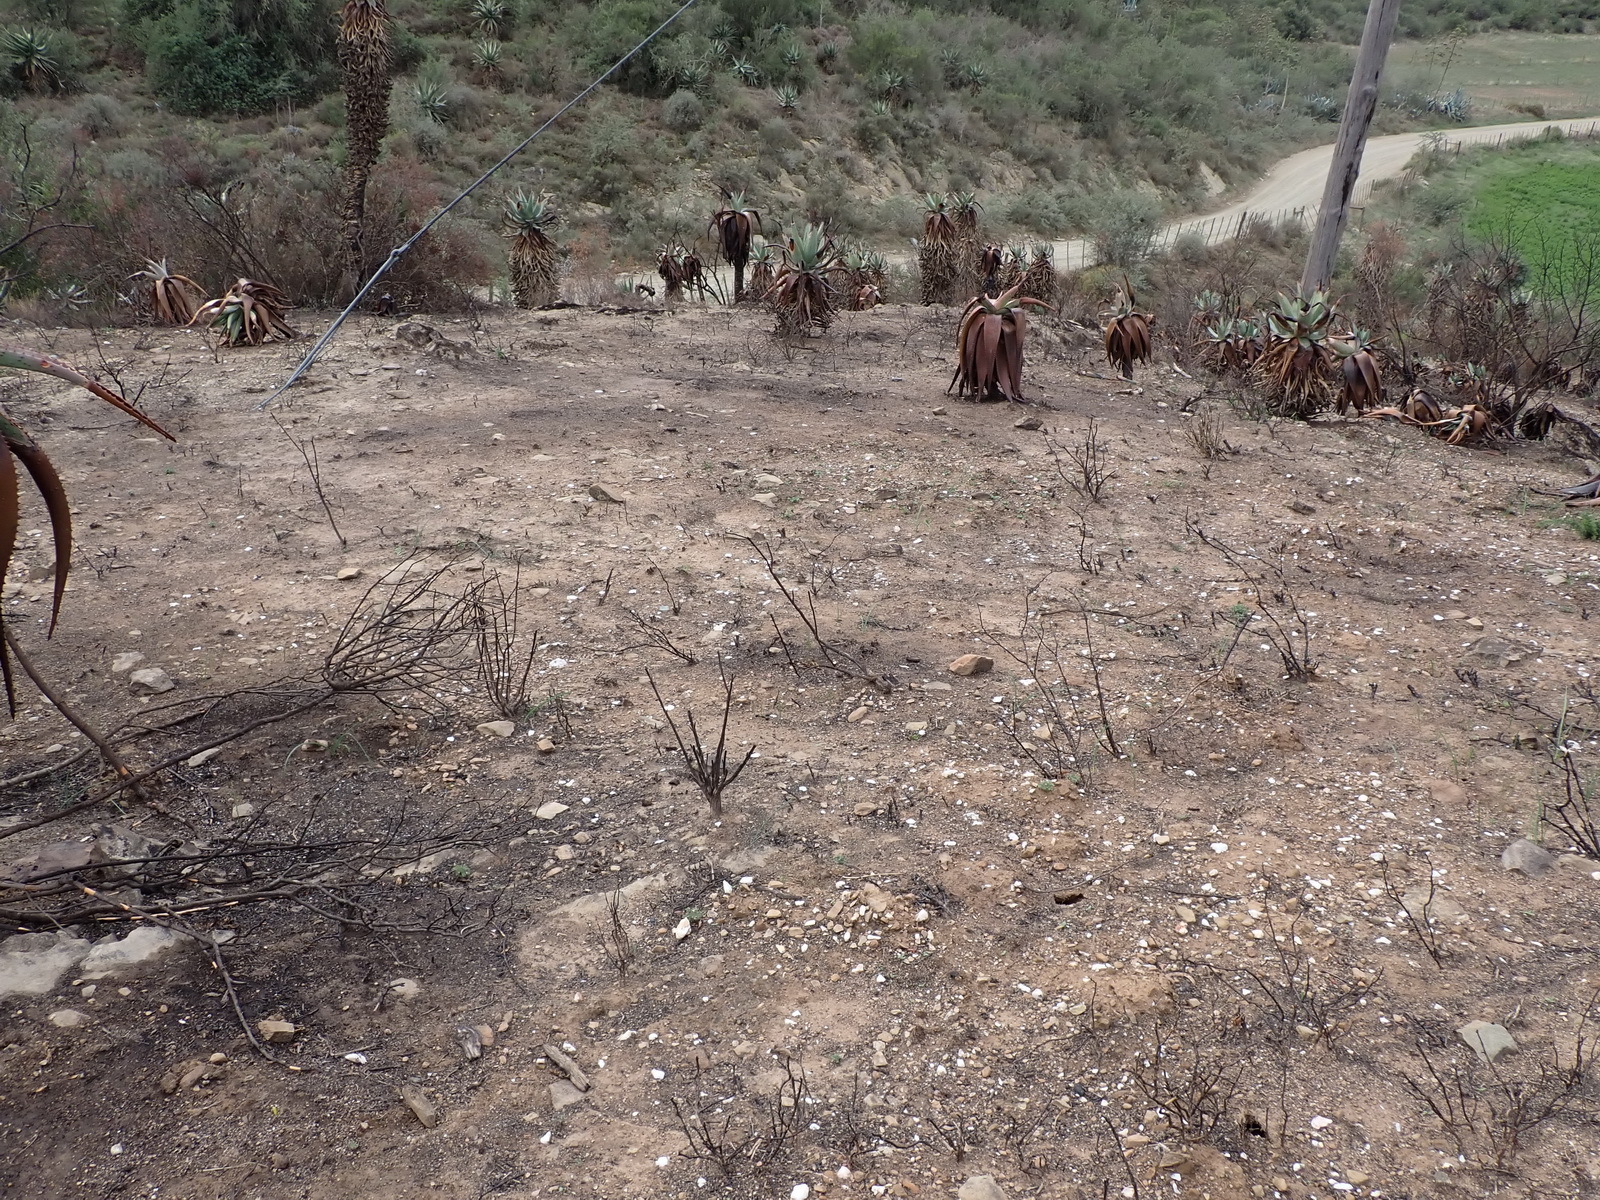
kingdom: Plantae
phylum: Tracheophyta
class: Liliopsida
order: Asparagales
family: Asphodelaceae
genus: Aloe
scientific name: Aloe ferox
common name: Bitter aloe
